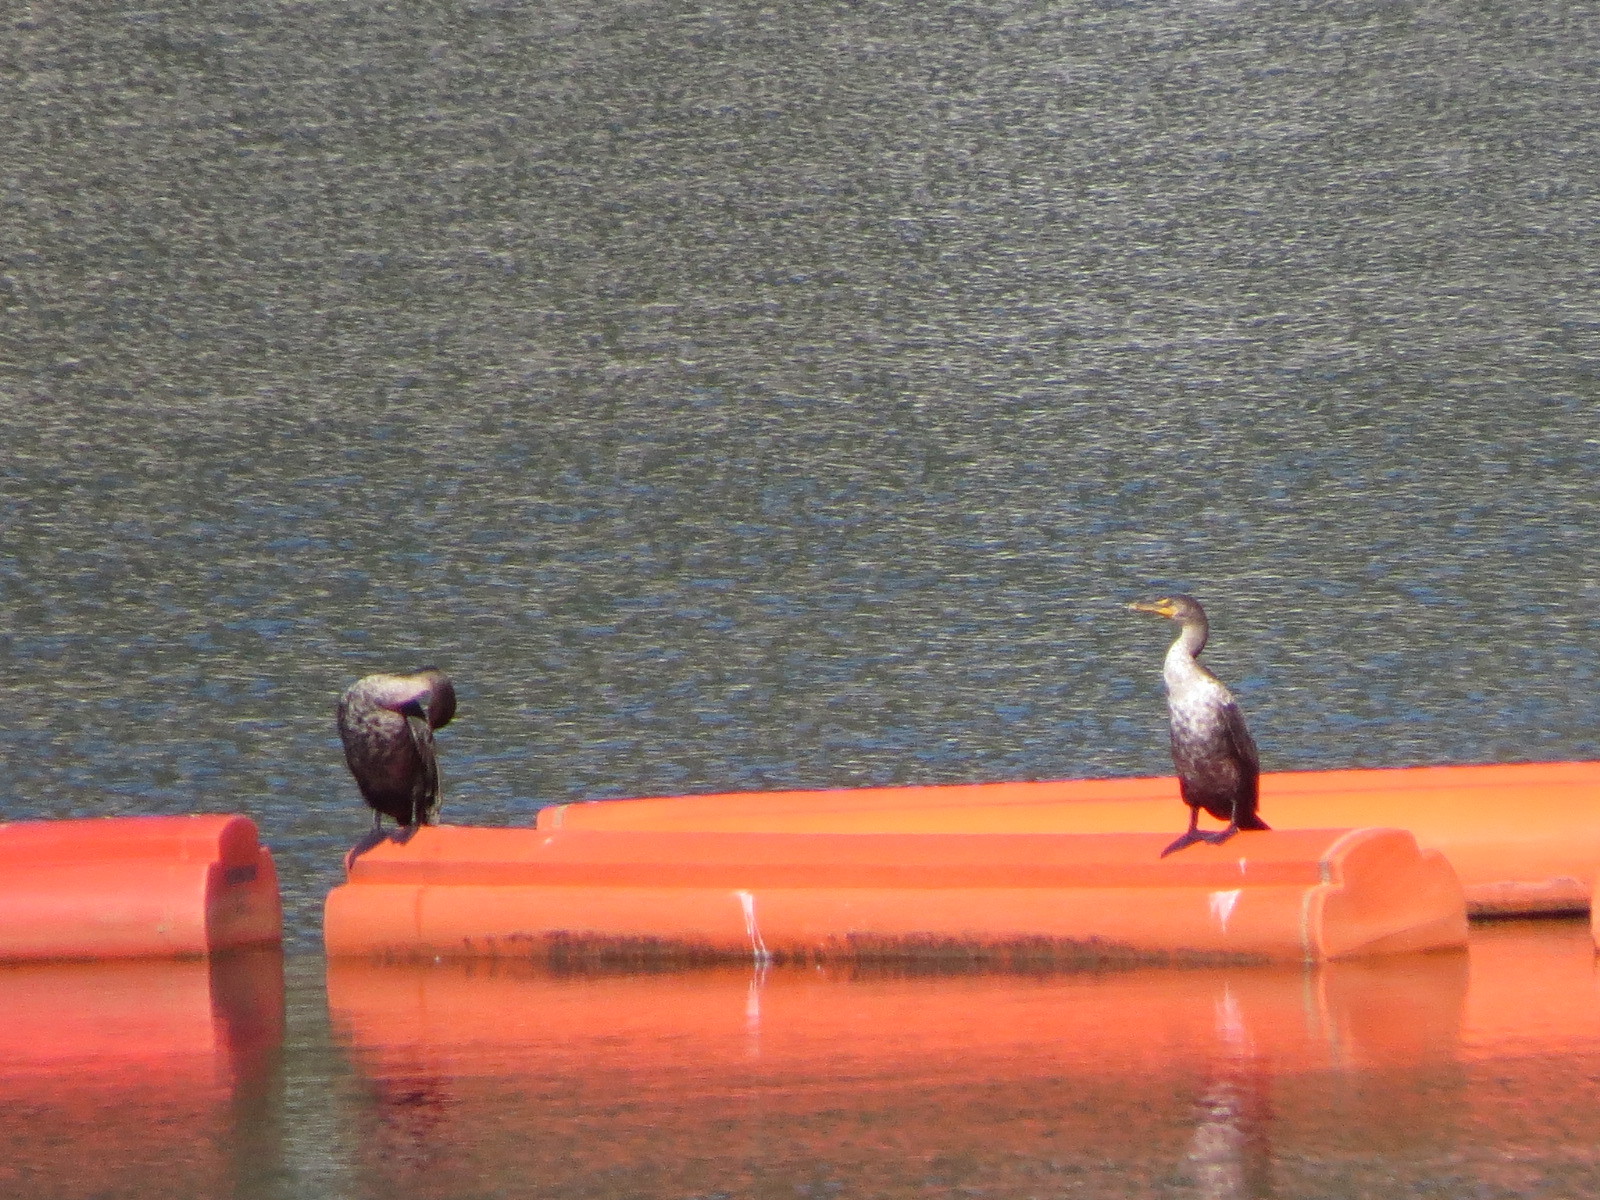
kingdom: Animalia
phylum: Chordata
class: Aves
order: Suliformes
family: Phalacrocoracidae
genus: Phalacrocorax
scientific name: Phalacrocorax auritus
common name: Double-crested cormorant
